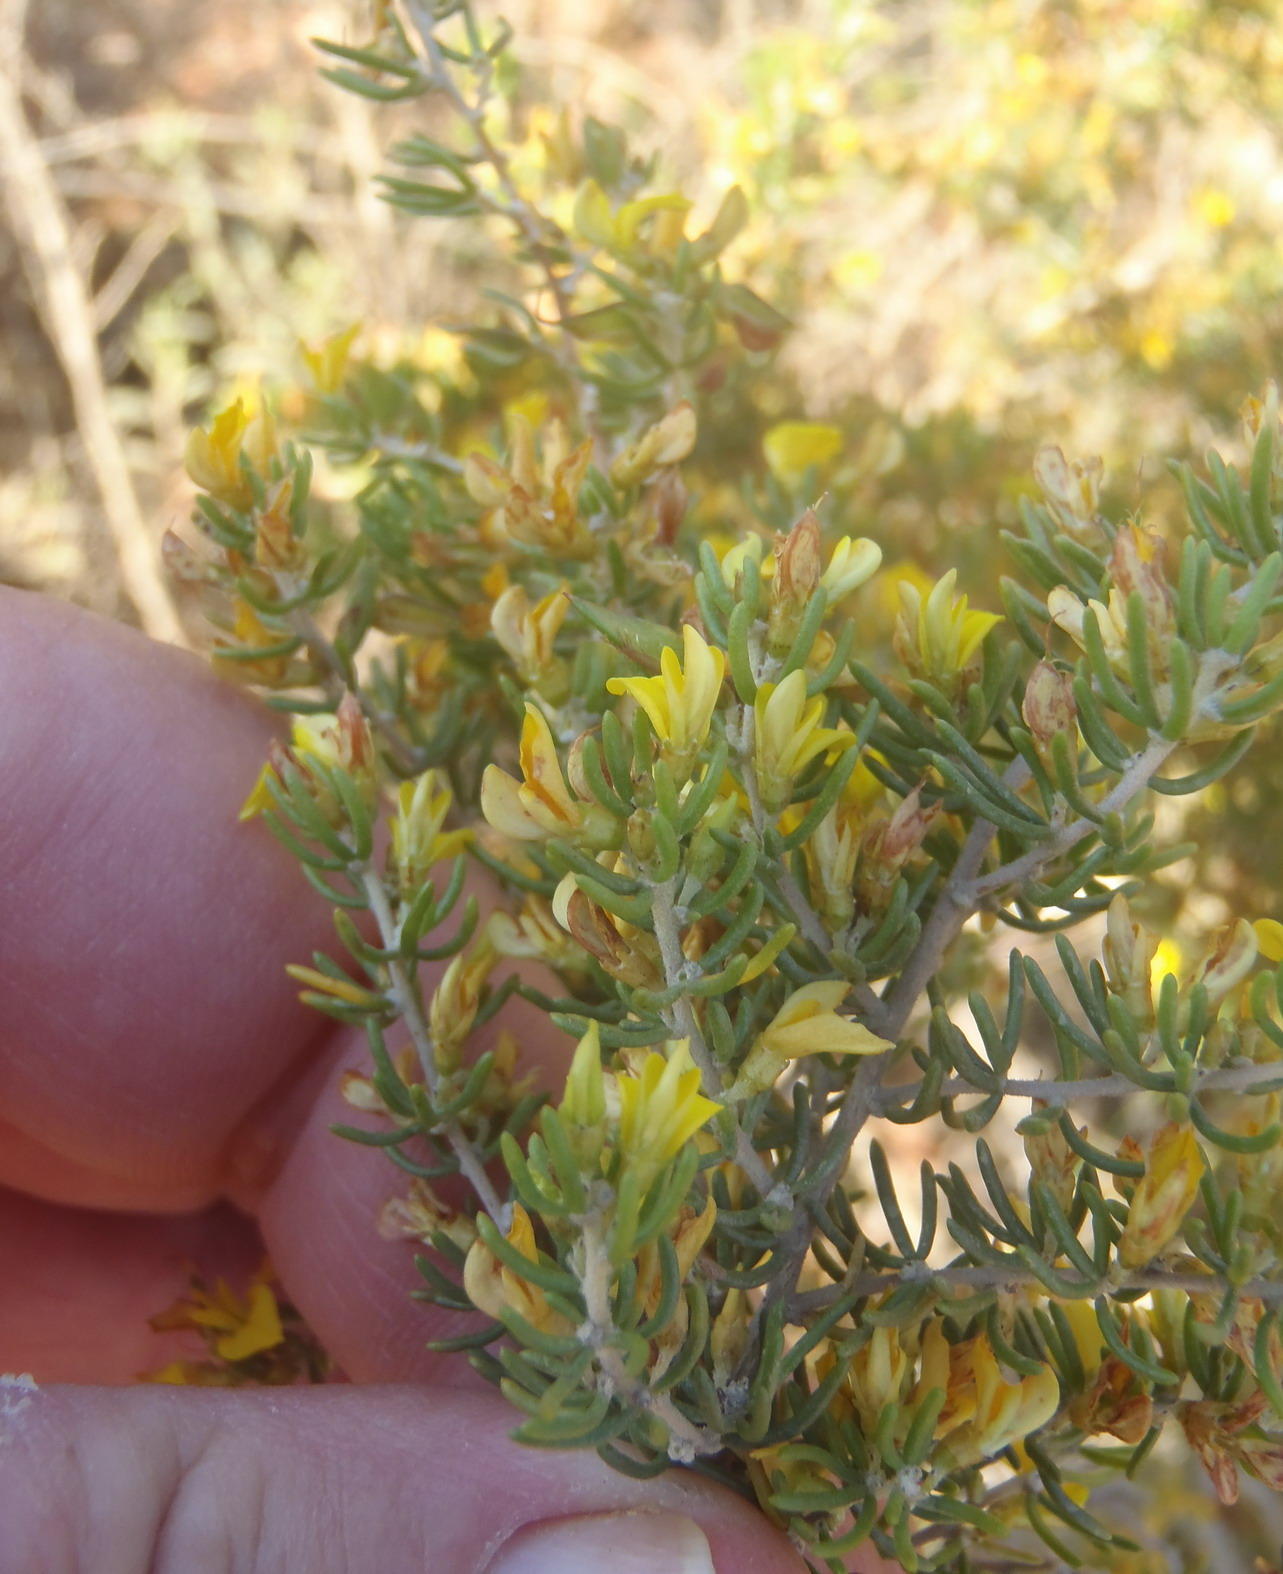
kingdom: Plantae
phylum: Tracheophyta
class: Magnoliopsida
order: Fabales
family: Fabaceae
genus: Aspalathus
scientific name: Aspalathus subtingens
